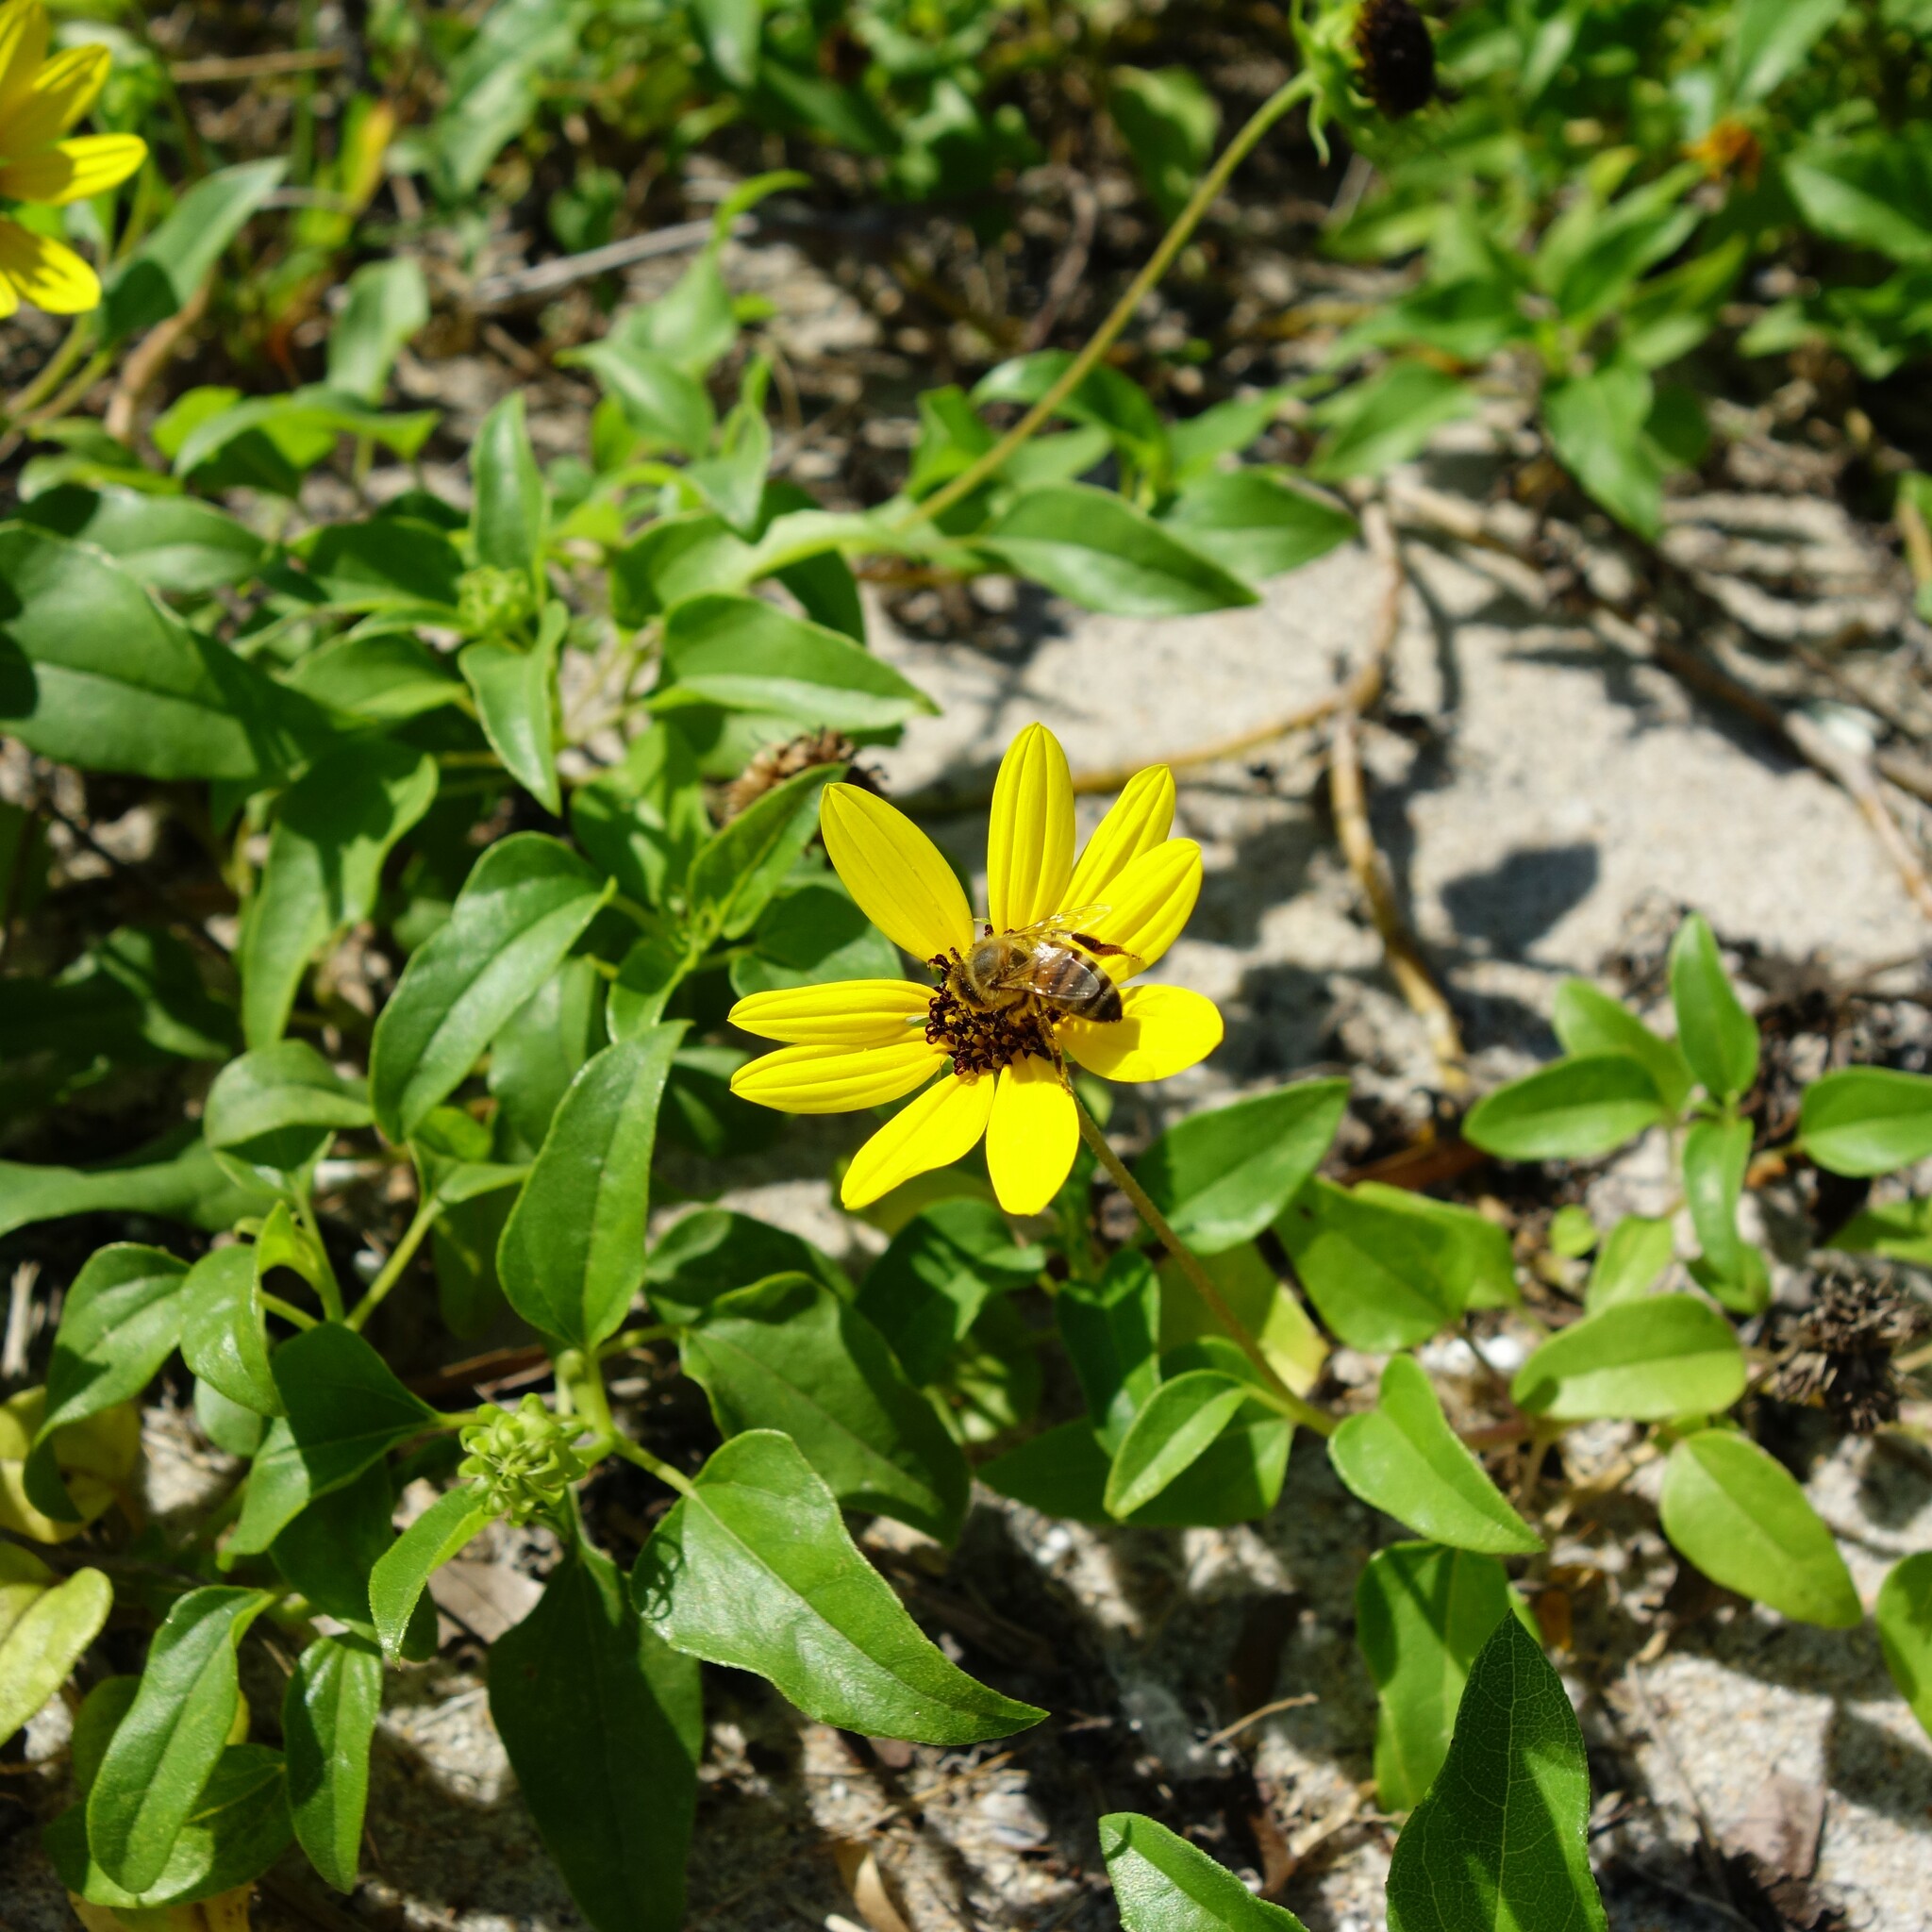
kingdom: Animalia
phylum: Arthropoda
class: Insecta
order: Hymenoptera
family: Apidae
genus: Apis
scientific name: Apis mellifera
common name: Honey bee
